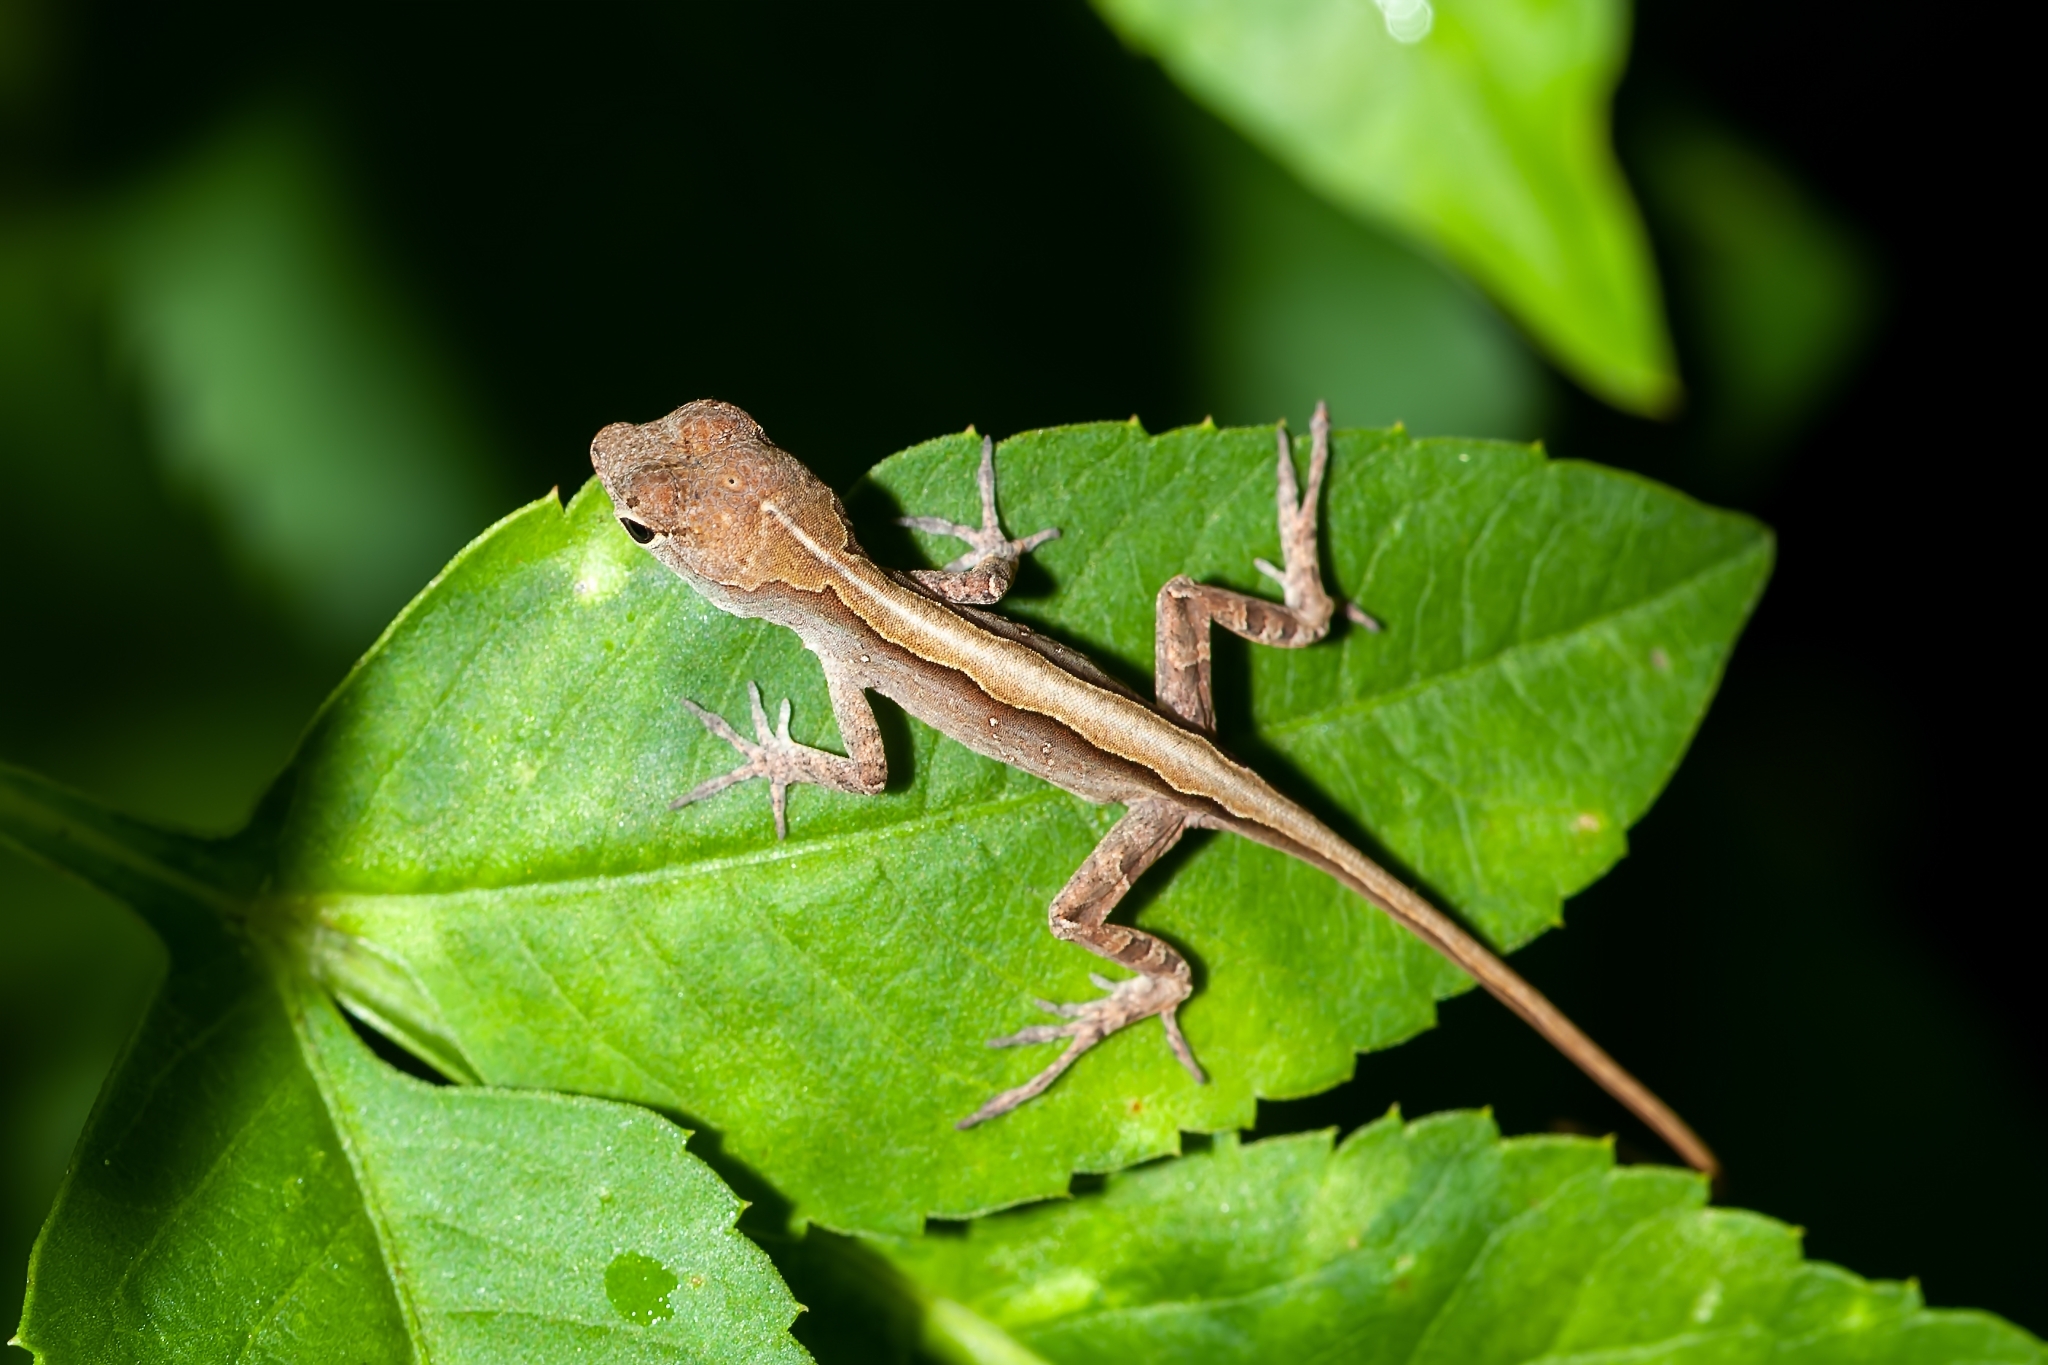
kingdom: Animalia
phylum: Chordata
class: Squamata
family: Dactyloidae
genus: Anolis
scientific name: Anolis sagrei
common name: Brown anole
